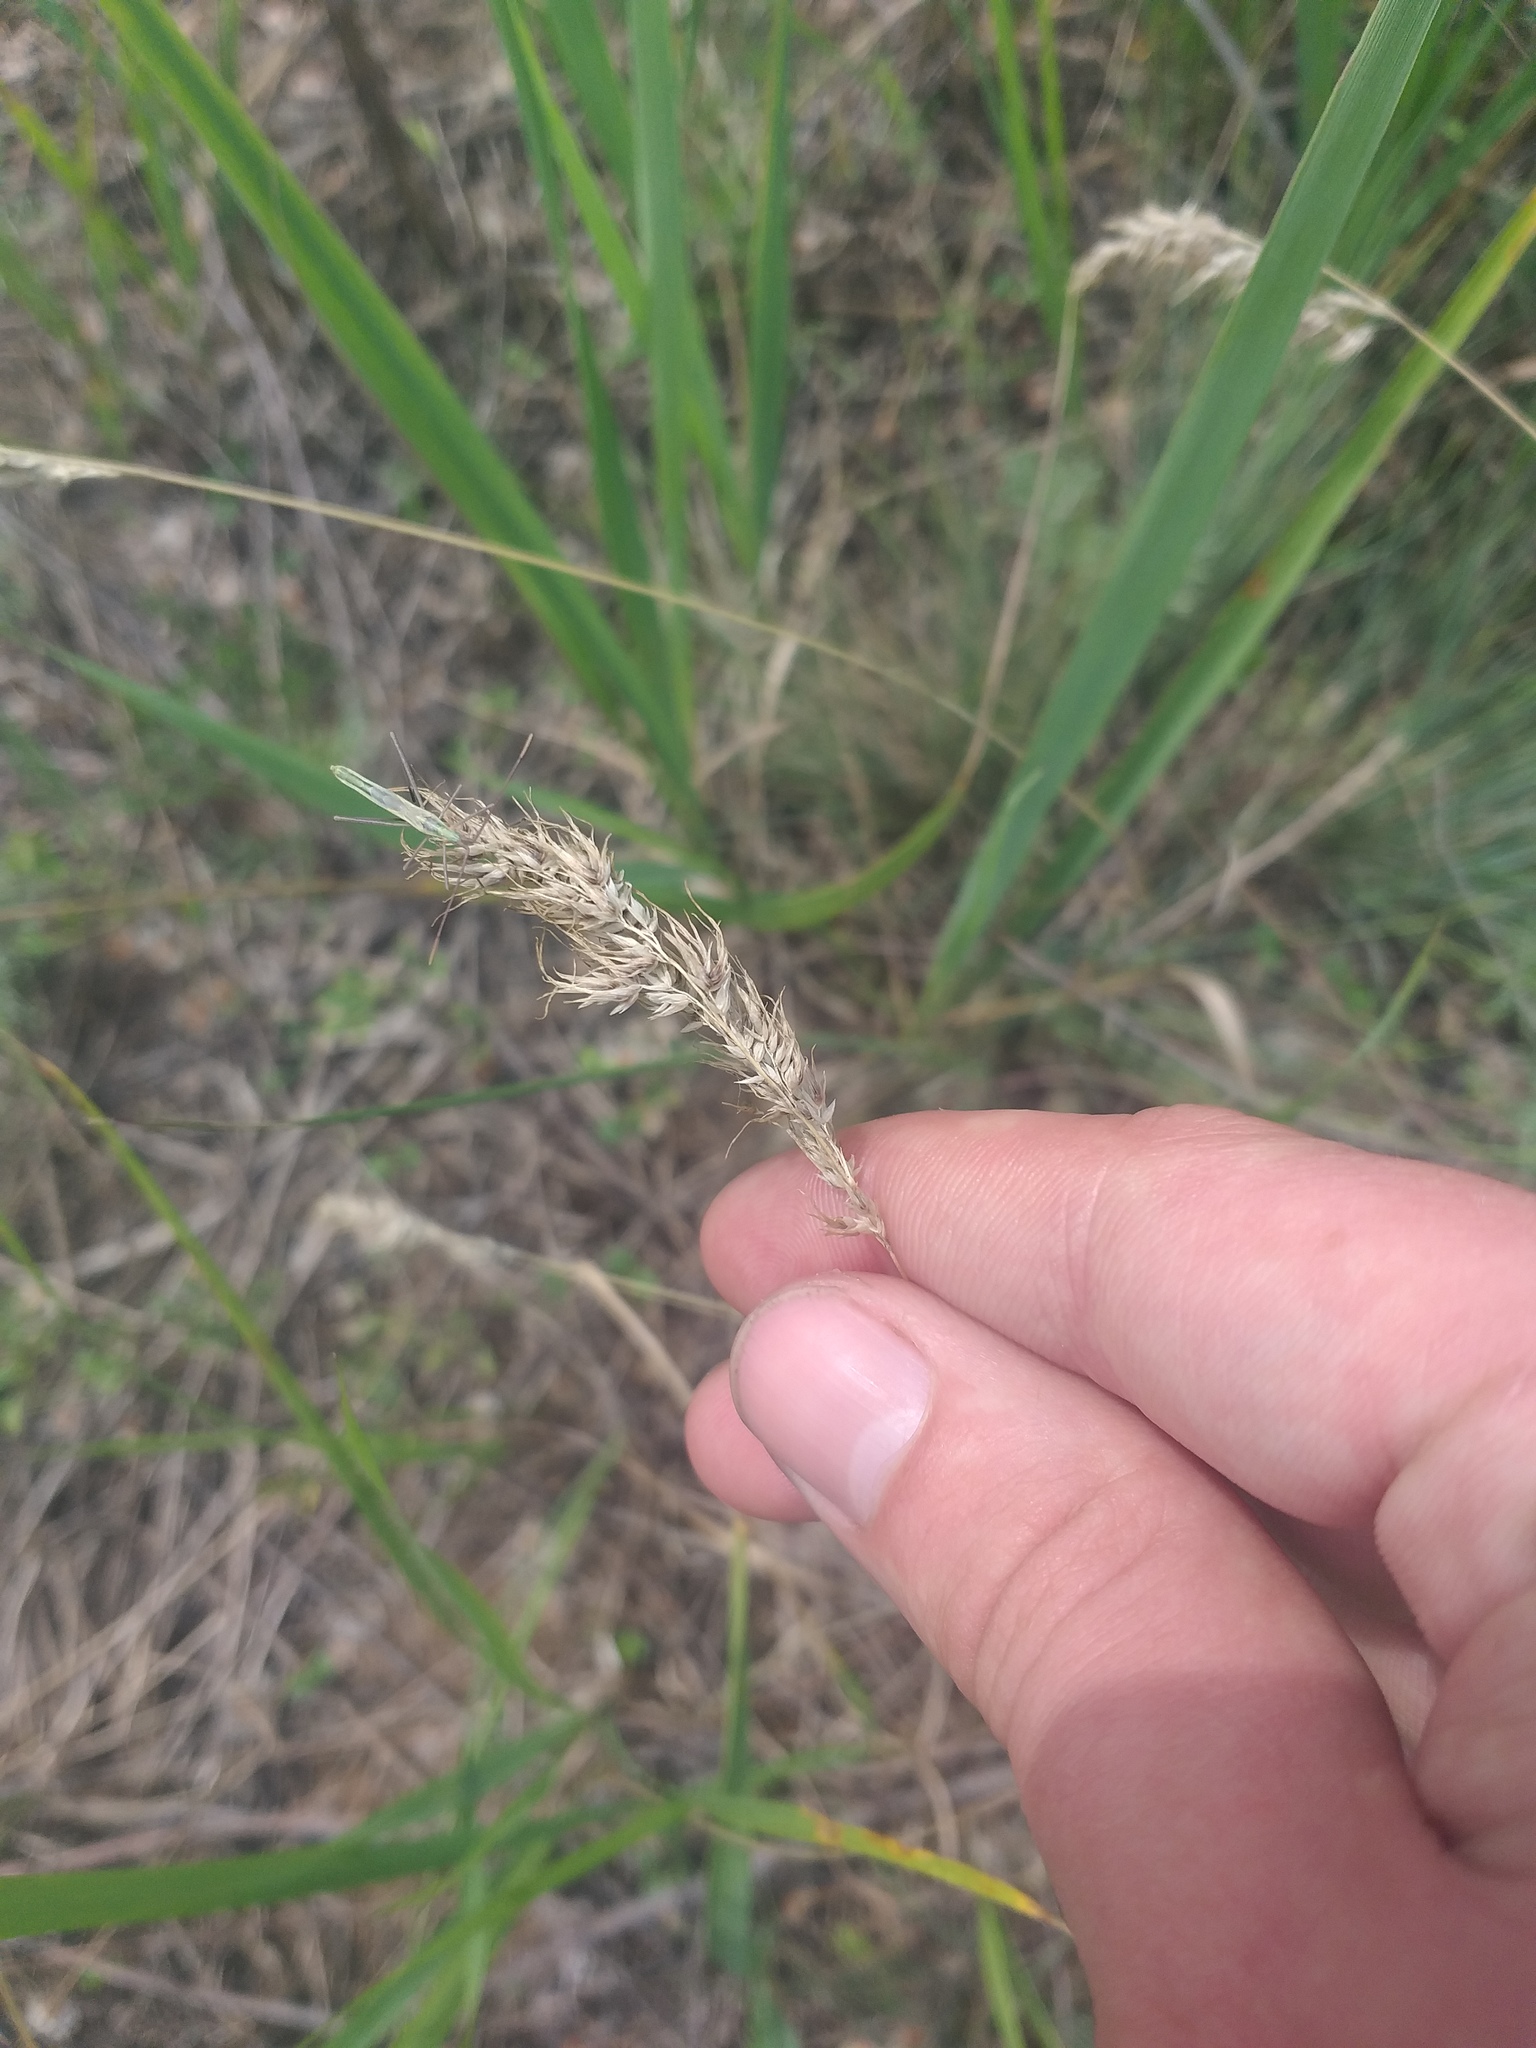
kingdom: Plantae
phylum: Tracheophyta
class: Liliopsida
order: Poales
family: Poaceae
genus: Poa
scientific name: Poa bulbosa
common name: Bulbous bluegrass
